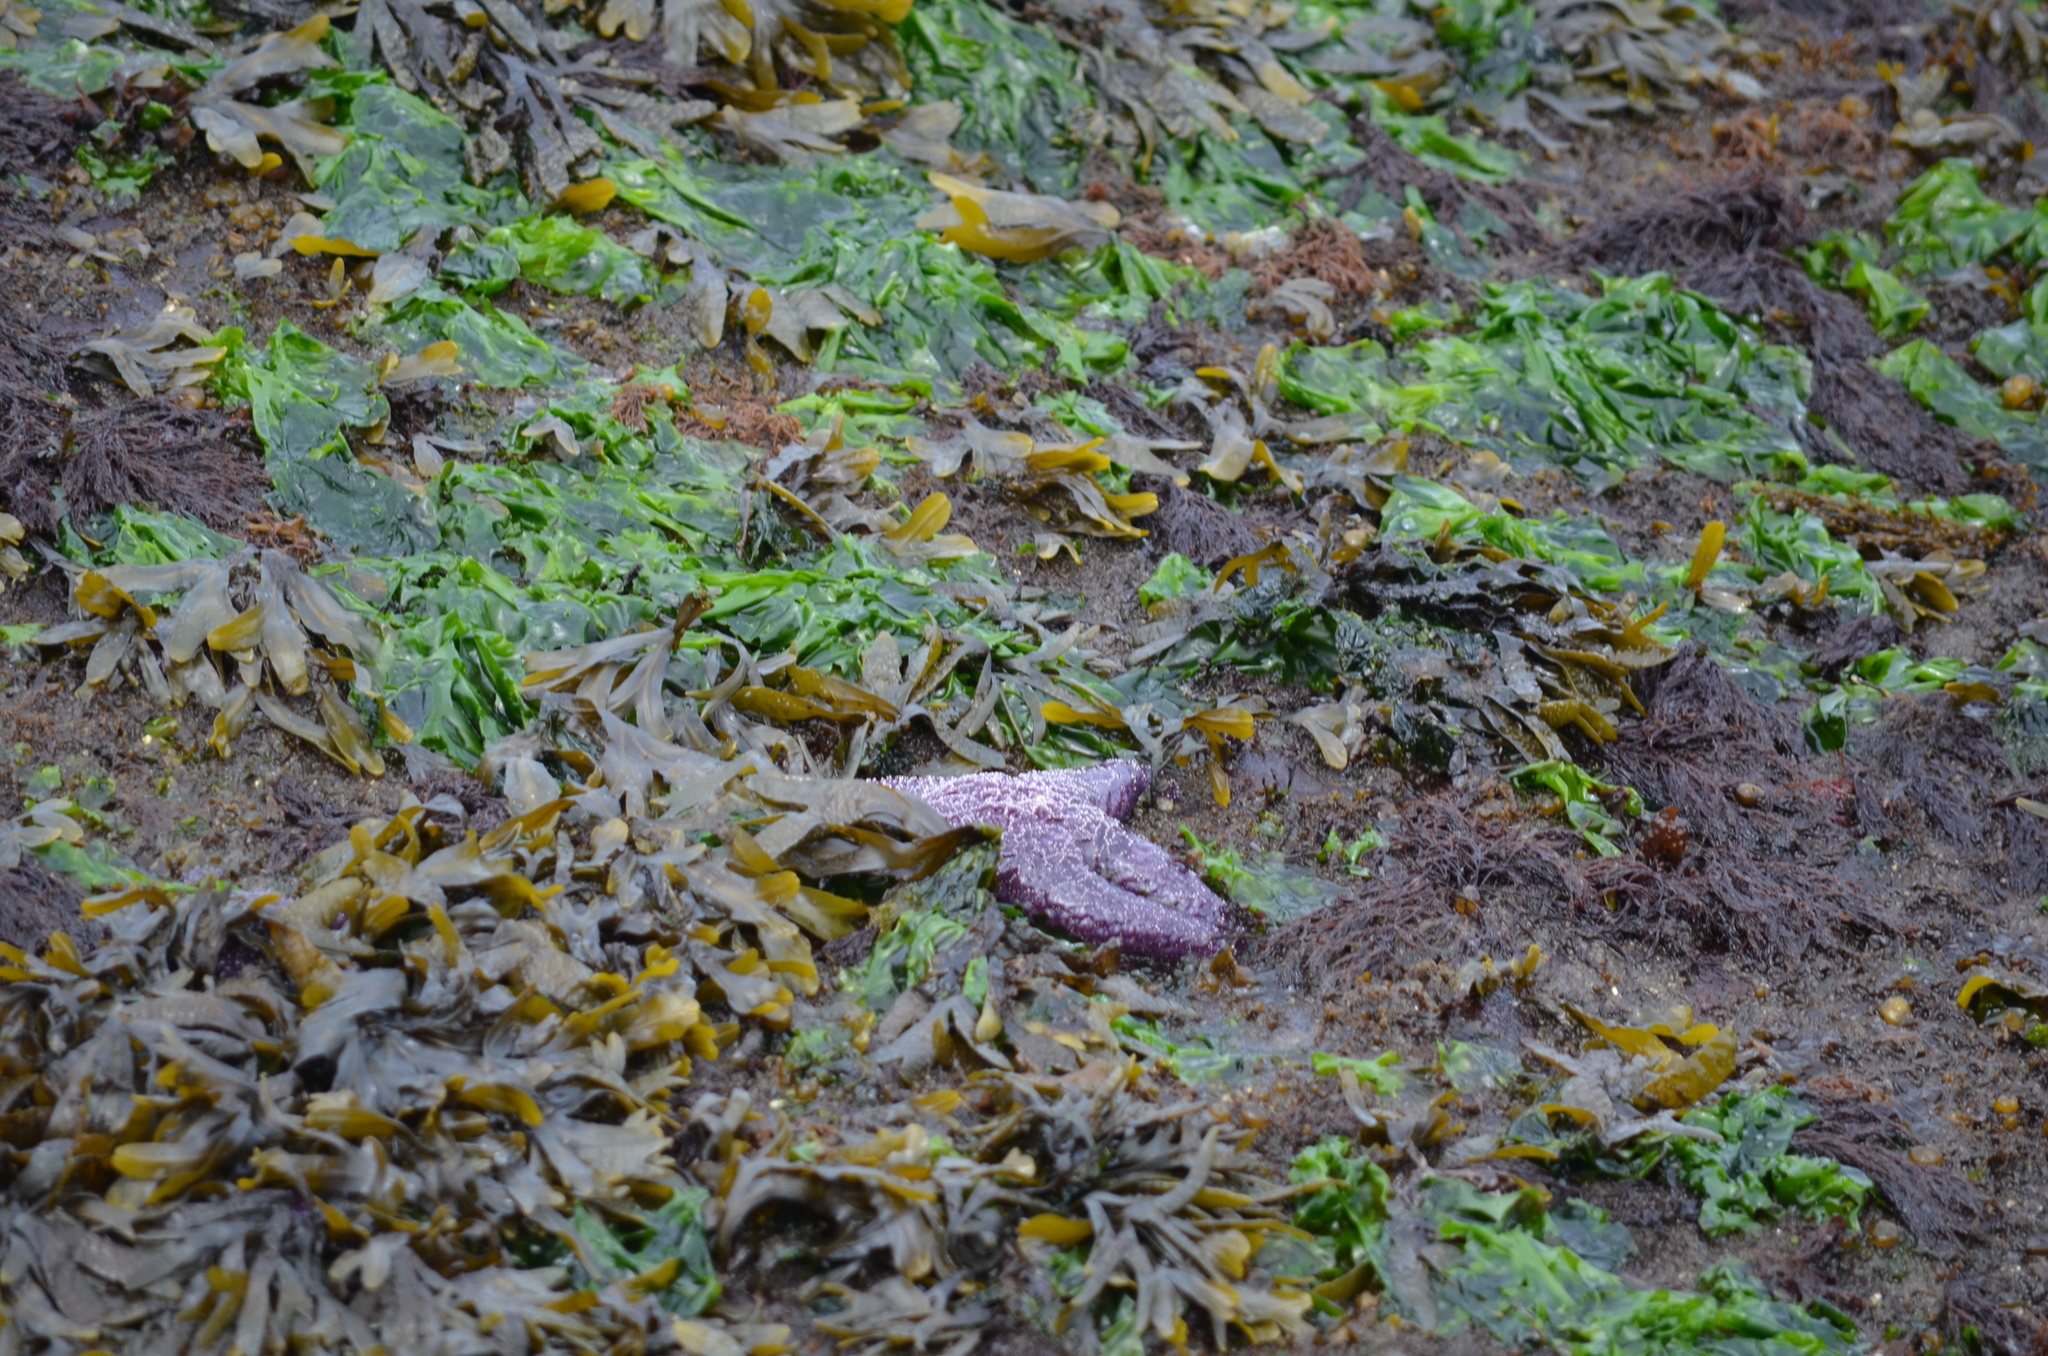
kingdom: Animalia
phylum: Echinodermata
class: Asteroidea
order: Forcipulatida
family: Asteriidae
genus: Pisaster
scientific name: Pisaster ochraceus
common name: Ochre stars
